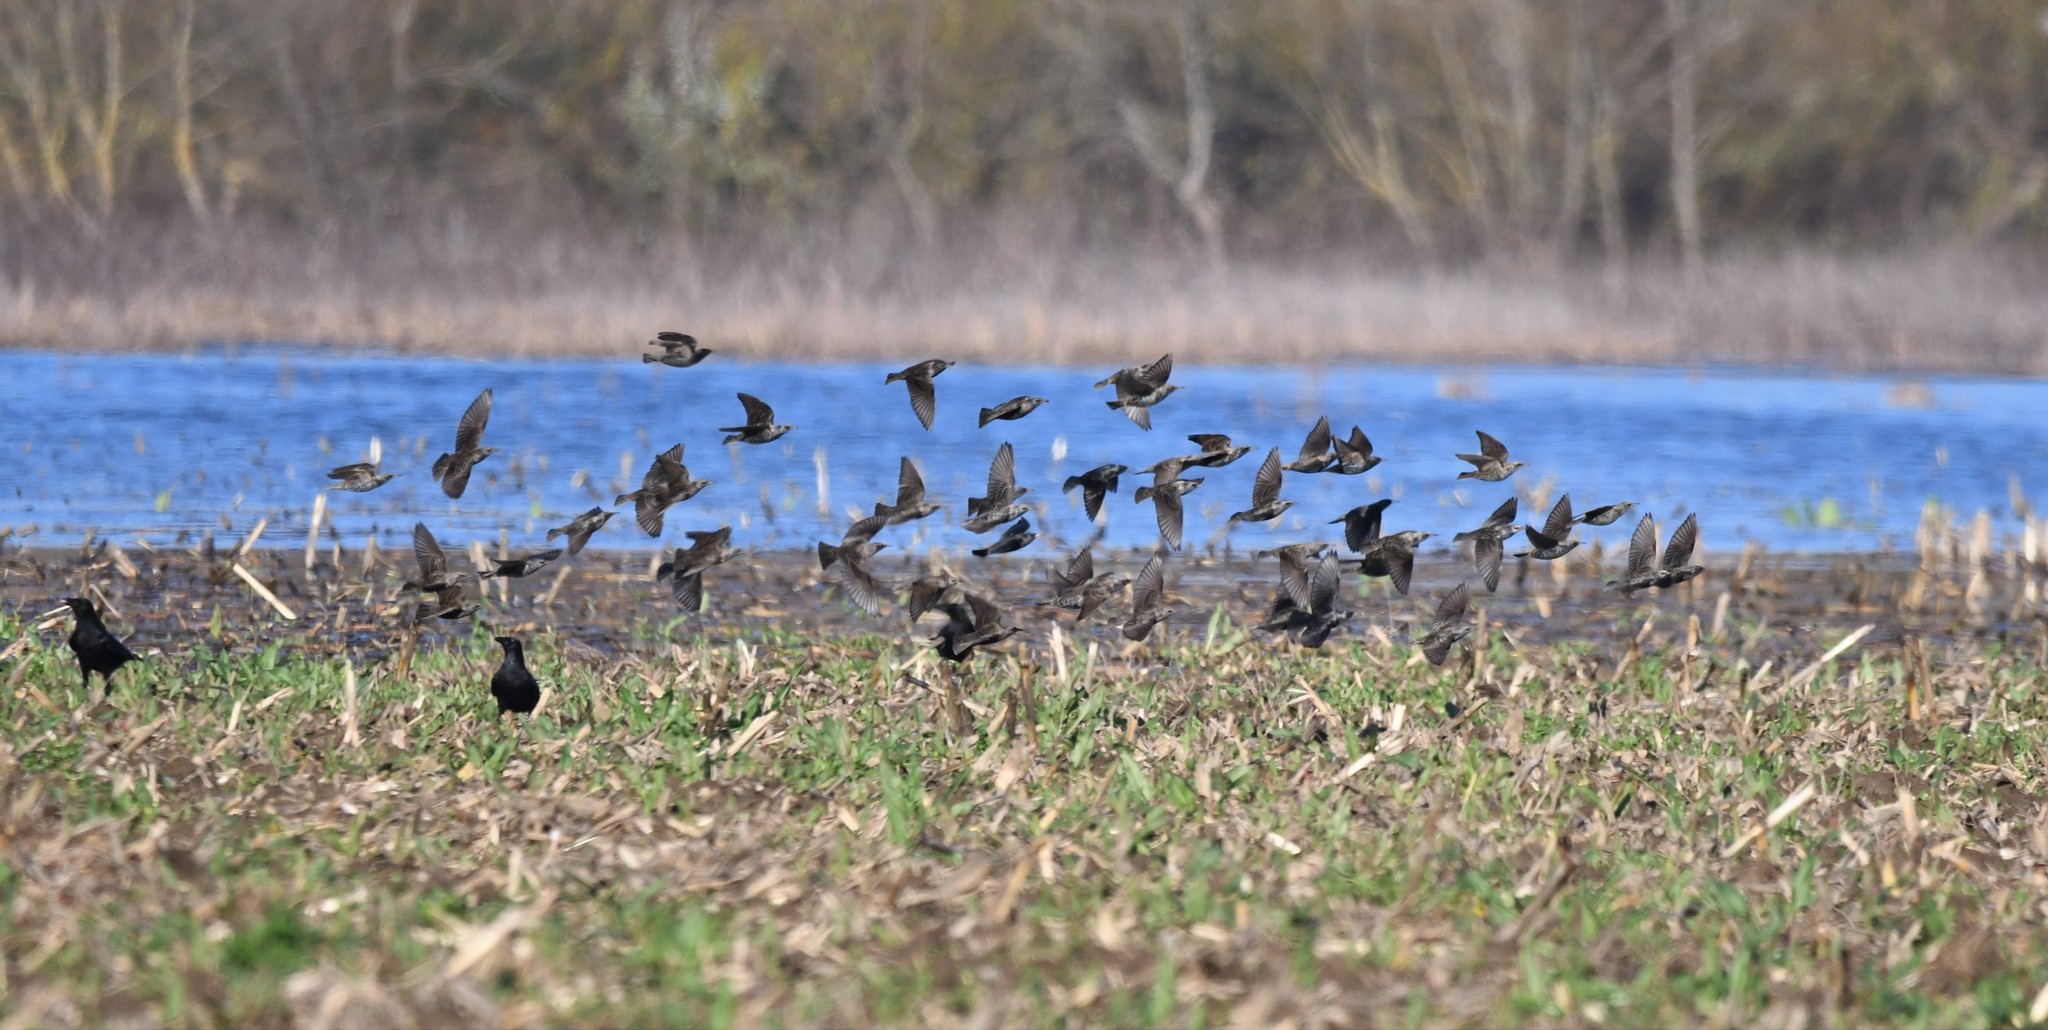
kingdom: Animalia
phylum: Chordata
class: Aves
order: Passeriformes
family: Sturnidae
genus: Sturnus
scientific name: Sturnus unicolor
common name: Spotless starling
